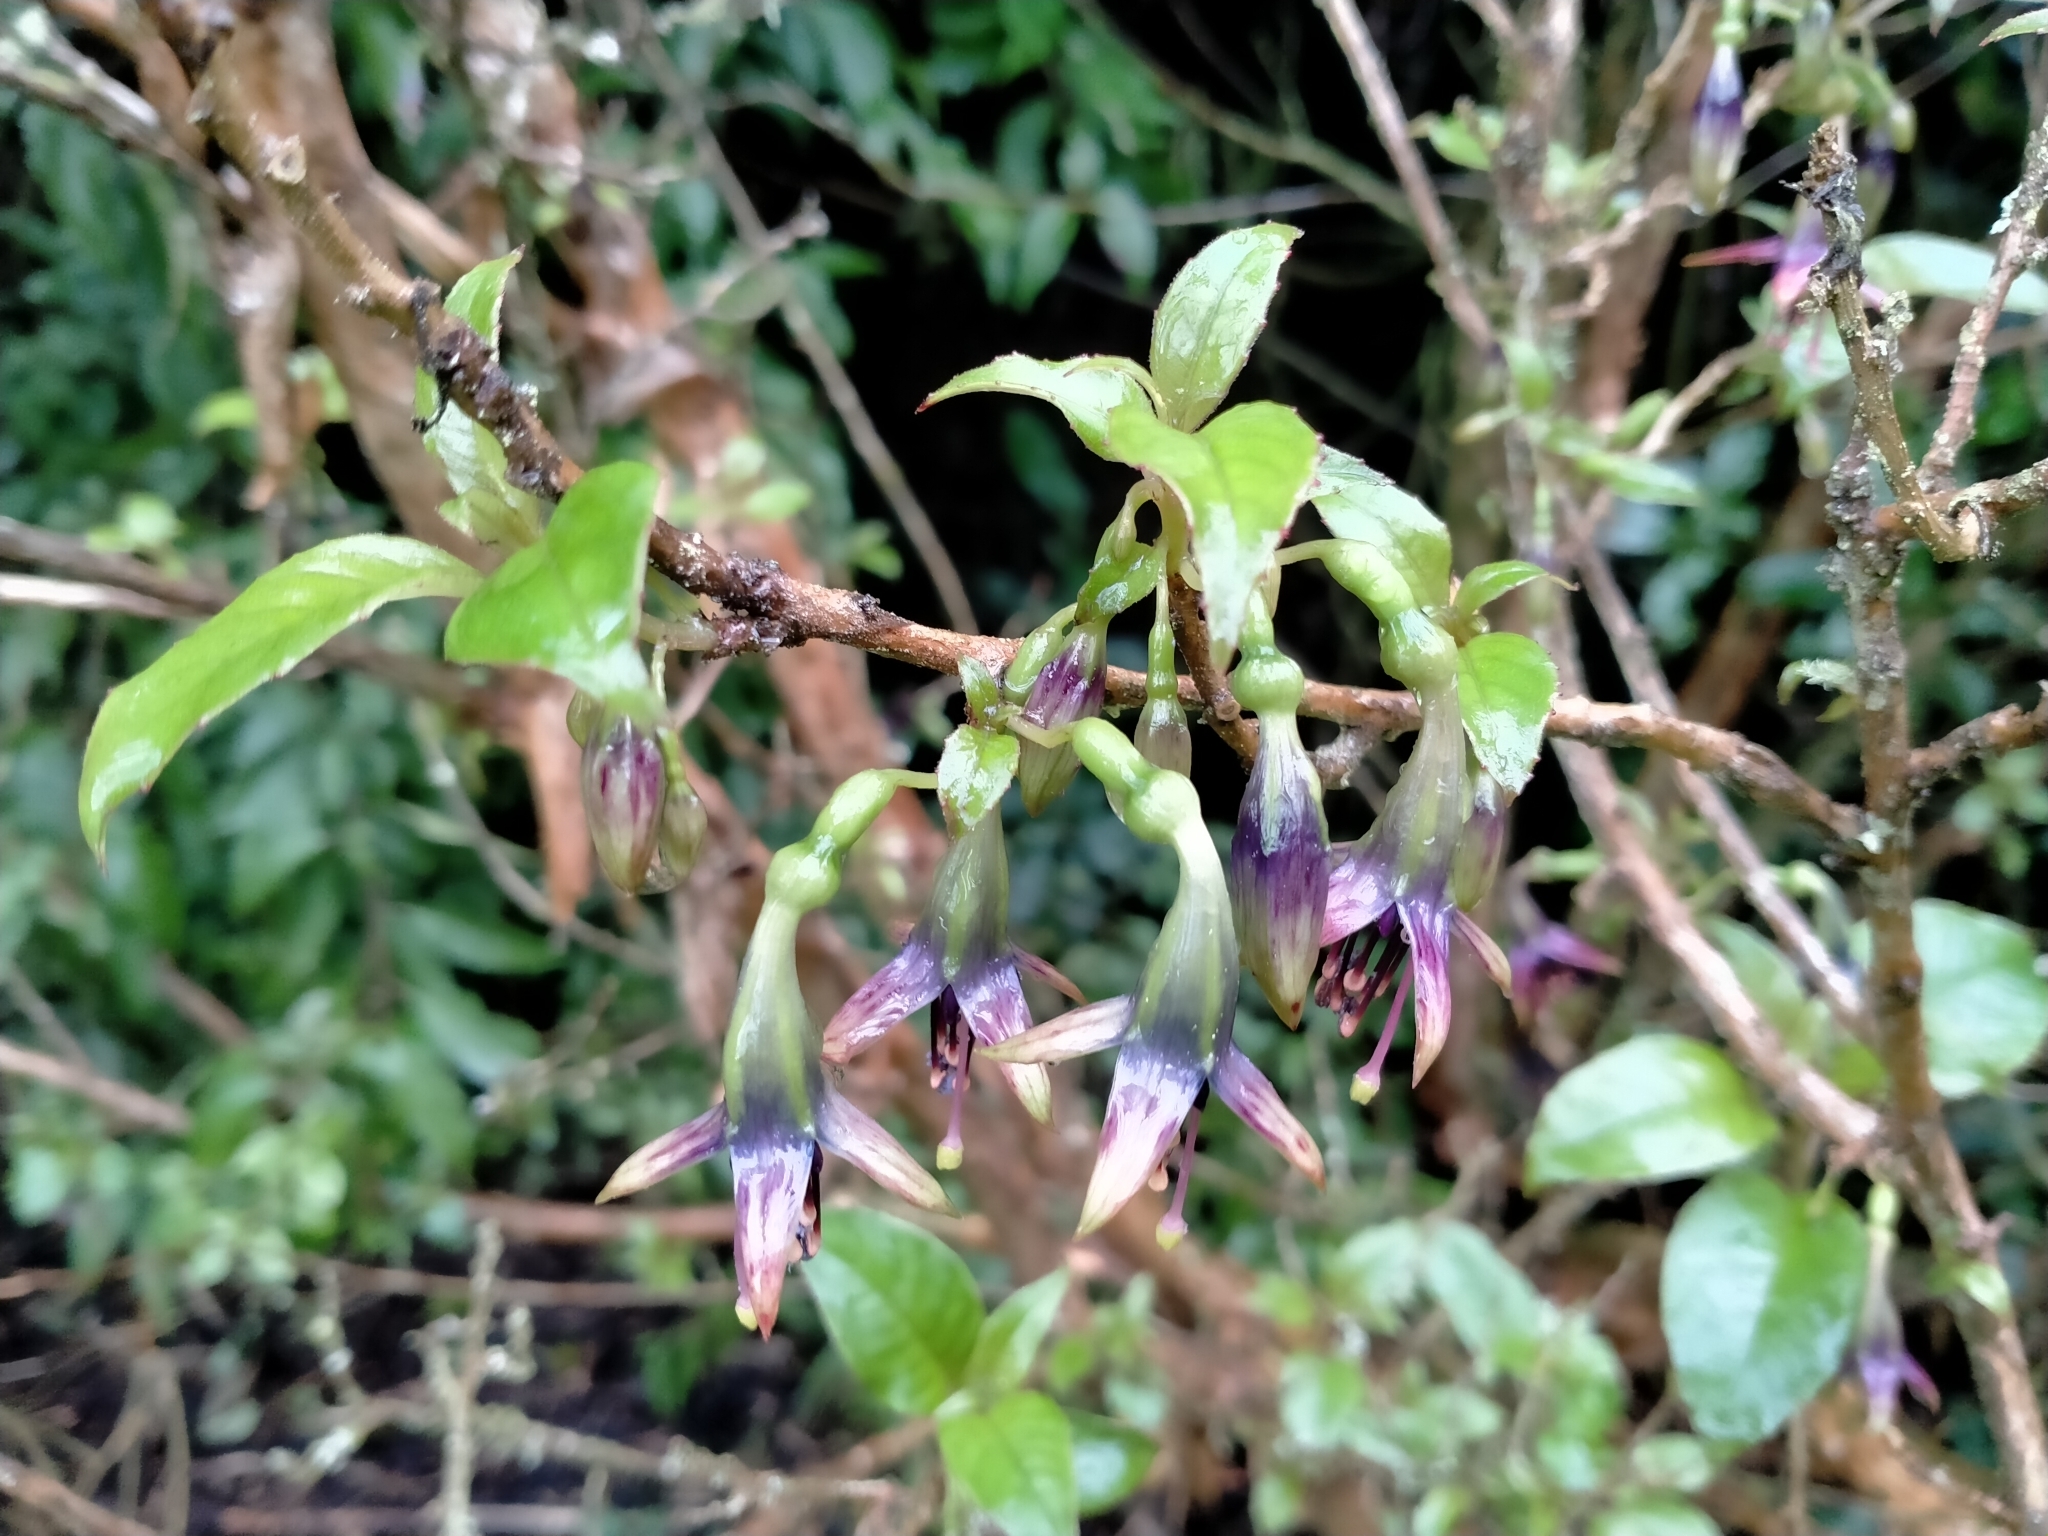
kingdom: Plantae
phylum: Tracheophyta
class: Magnoliopsida
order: Myrtales
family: Onagraceae
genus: Fuchsia
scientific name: Fuchsia excorticata
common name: Tree fuchsia
